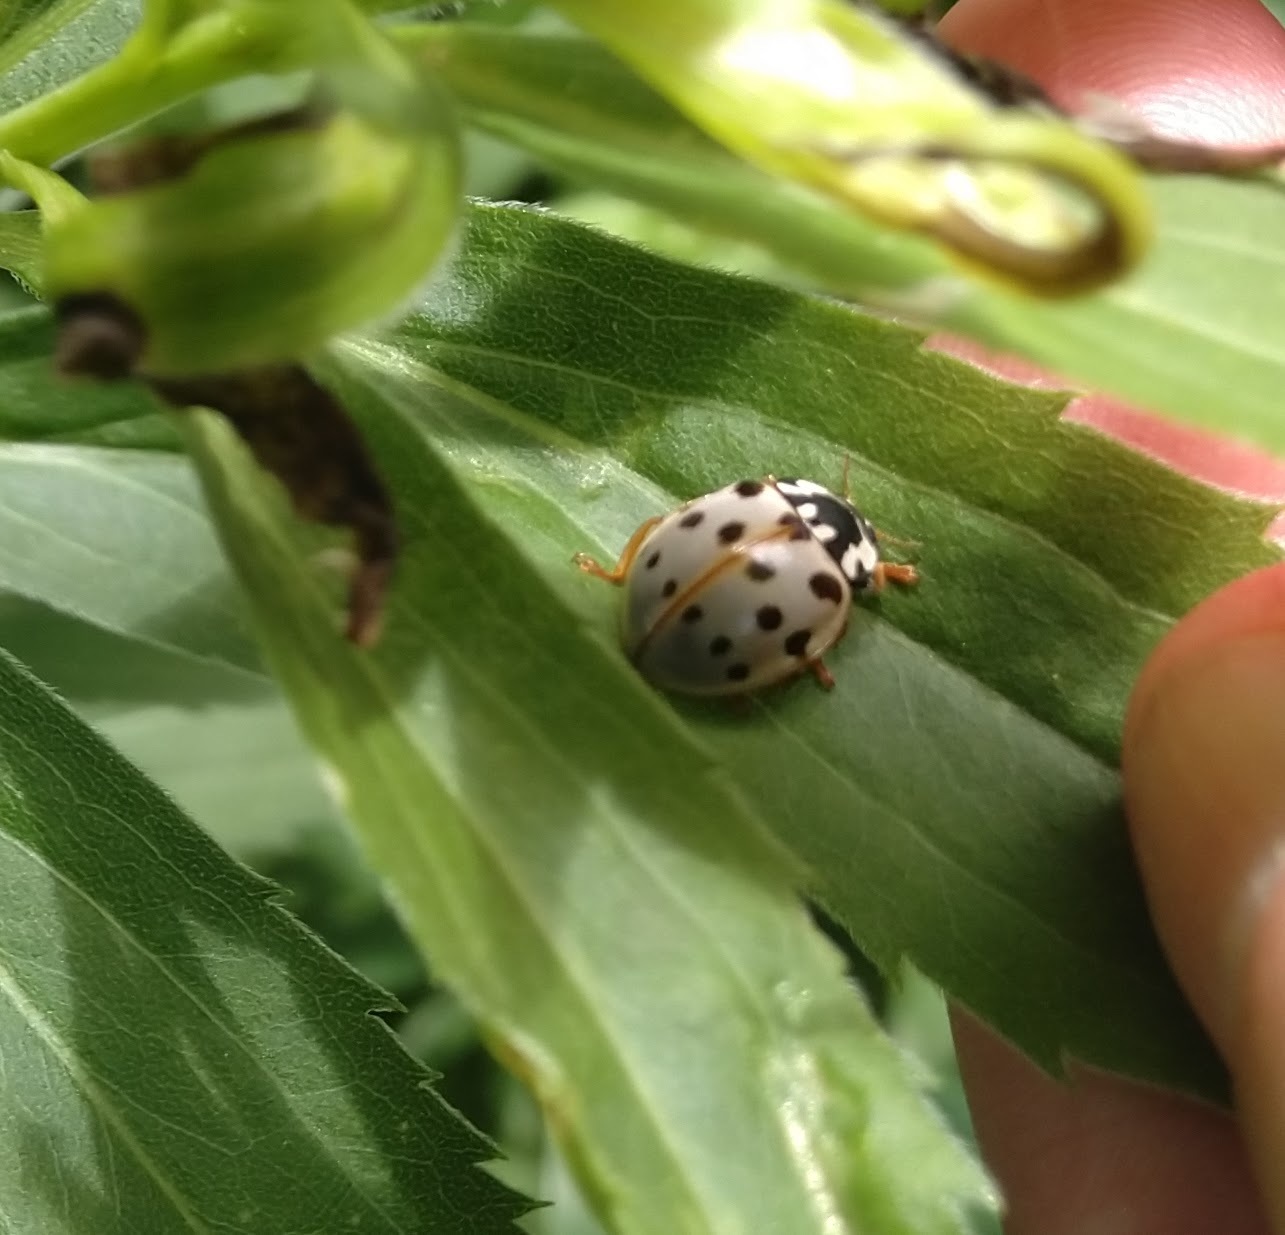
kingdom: Animalia
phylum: Arthropoda
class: Insecta
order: Coleoptera
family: Coccinellidae
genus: Anatis
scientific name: Anatis labiculata
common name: Fifteen-spotted lady beetle
